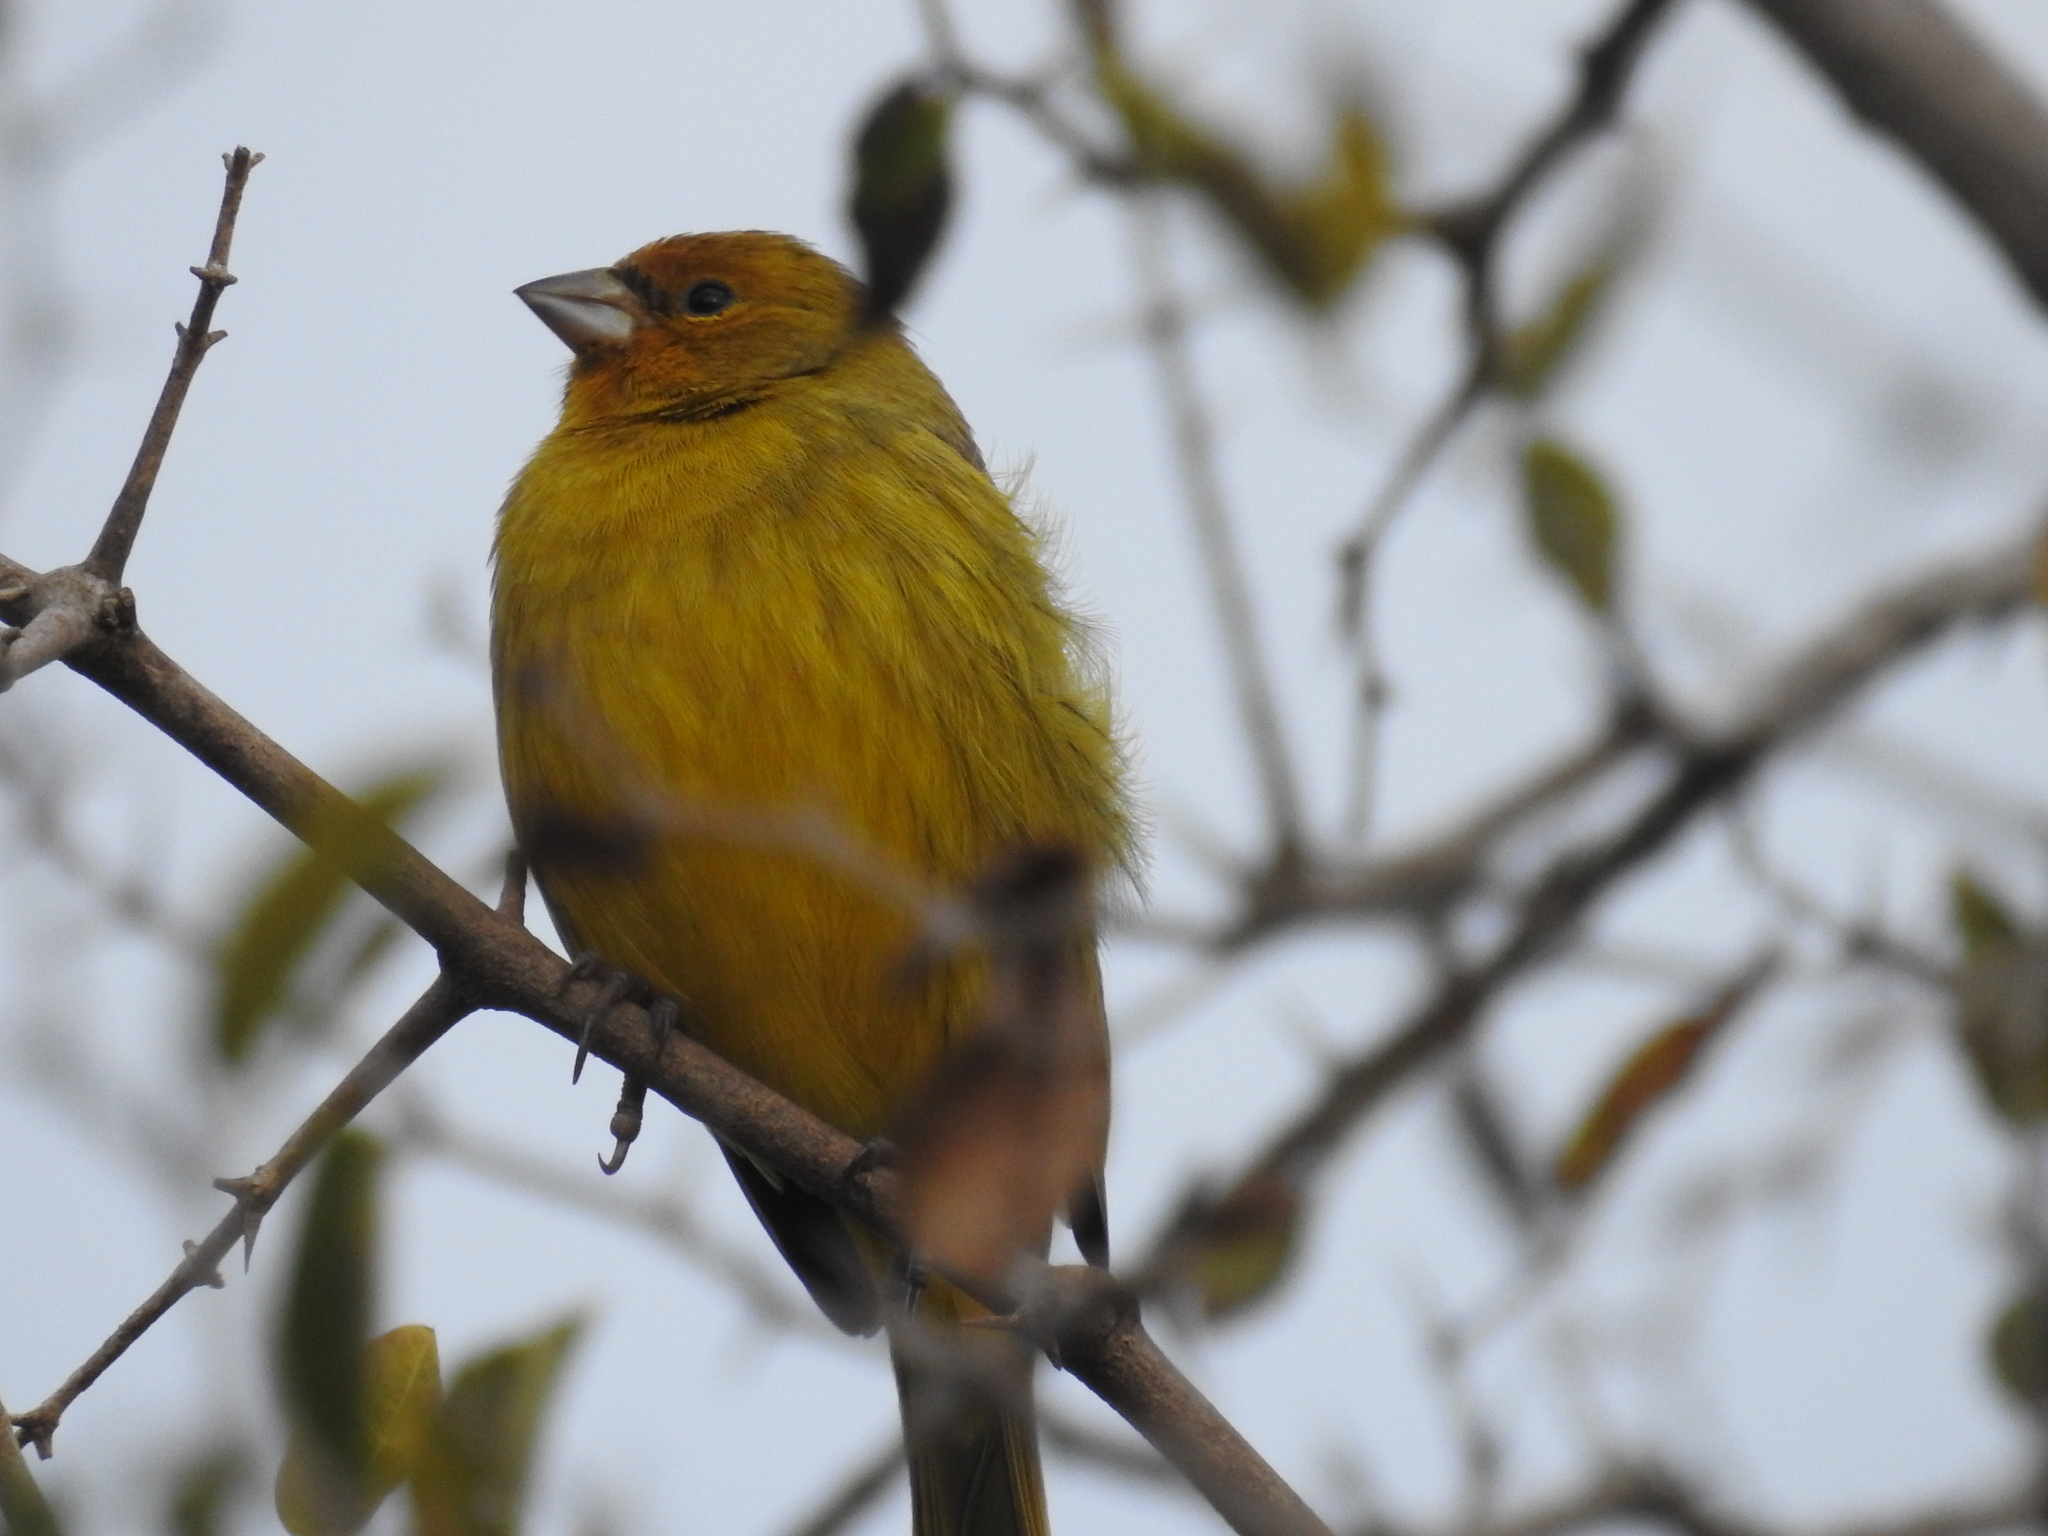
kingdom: Animalia
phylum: Chordata
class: Aves
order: Passeriformes
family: Thraupidae
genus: Sicalis
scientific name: Sicalis flaveola
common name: Saffron finch
